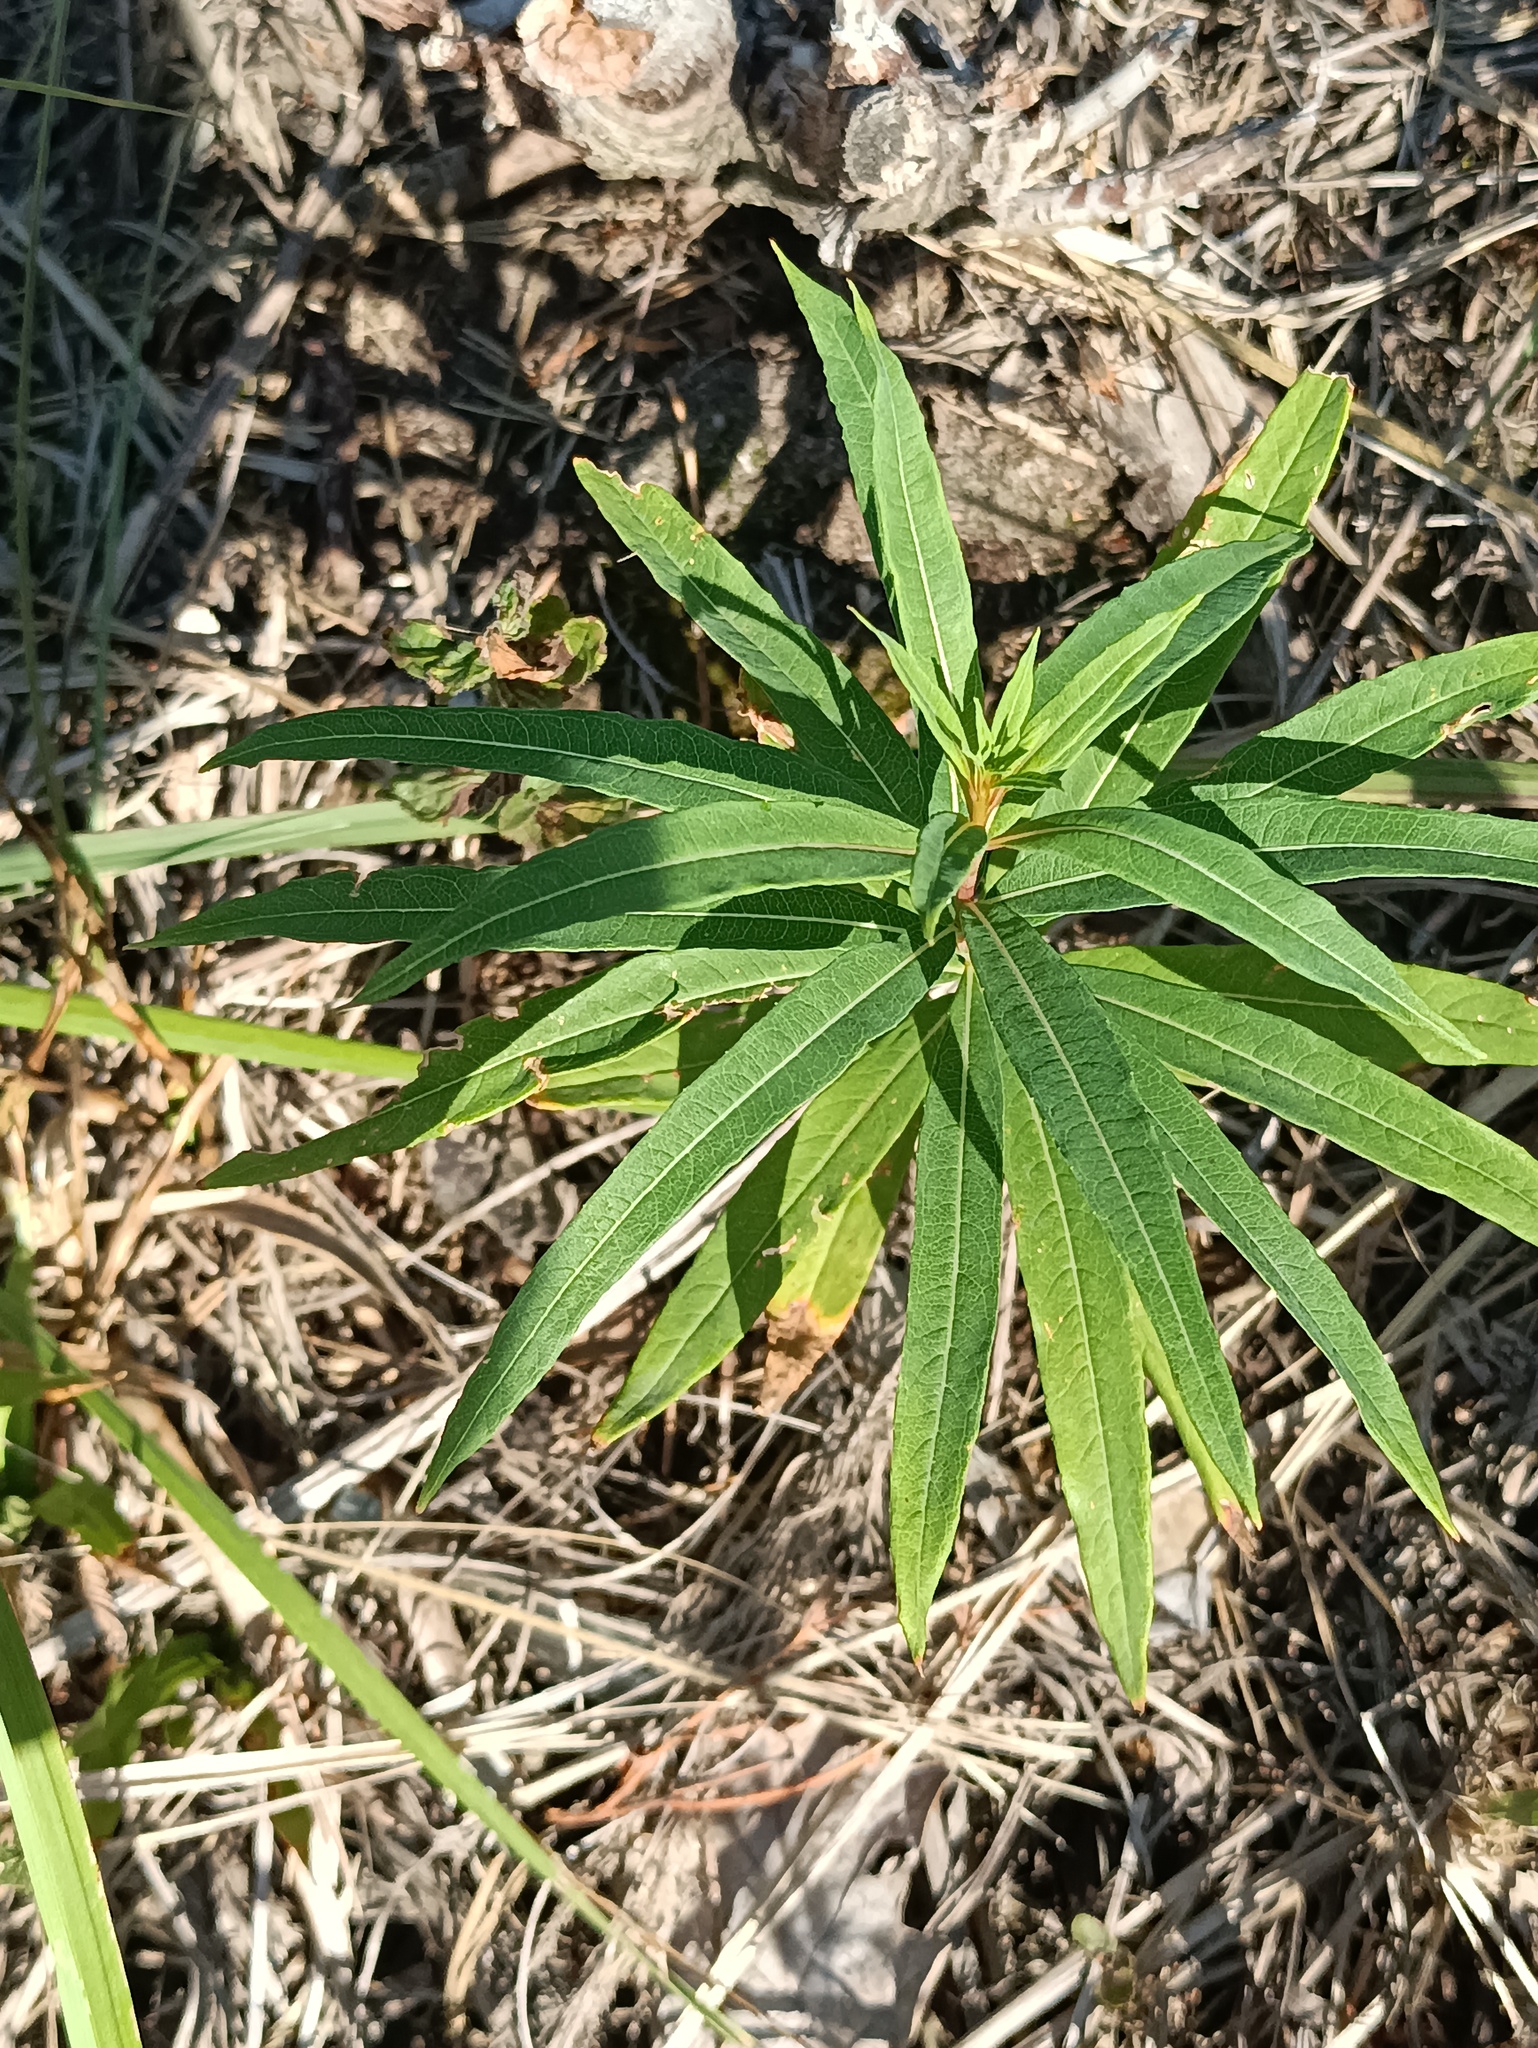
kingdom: Plantae
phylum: Tracheophyta
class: Magnoliopsida
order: Myrtales
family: Onagraceae
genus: Chamaenerion
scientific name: Chamaenerion angustifolium
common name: Fireweed
